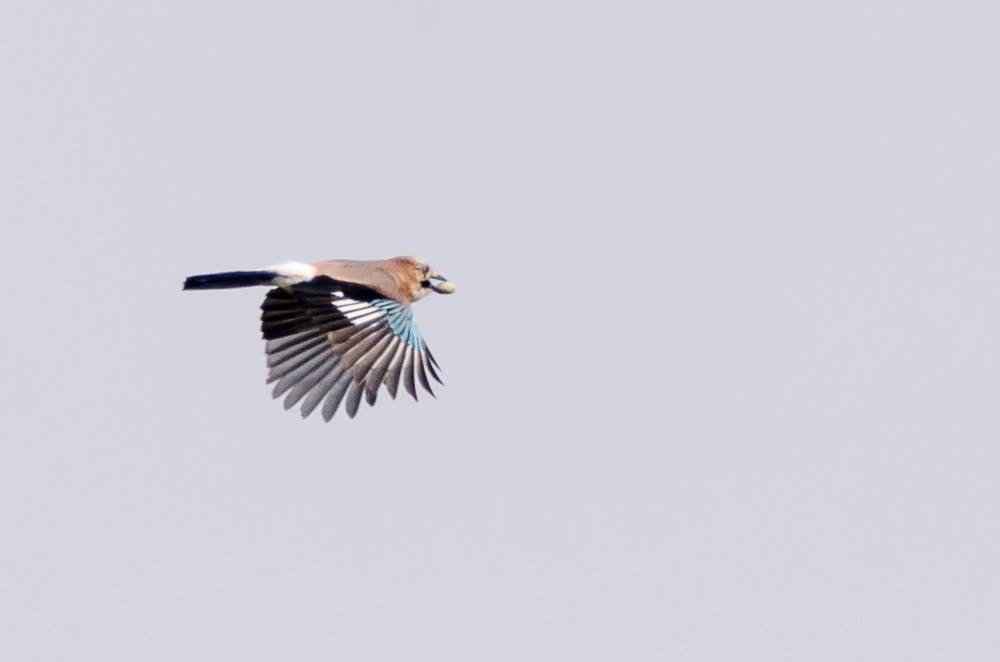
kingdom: Animalia
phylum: Chordata
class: Aves
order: Passeriformes
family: Corvidae
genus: Garrulus
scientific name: Garrulus glandarius
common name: Eurasian jay
